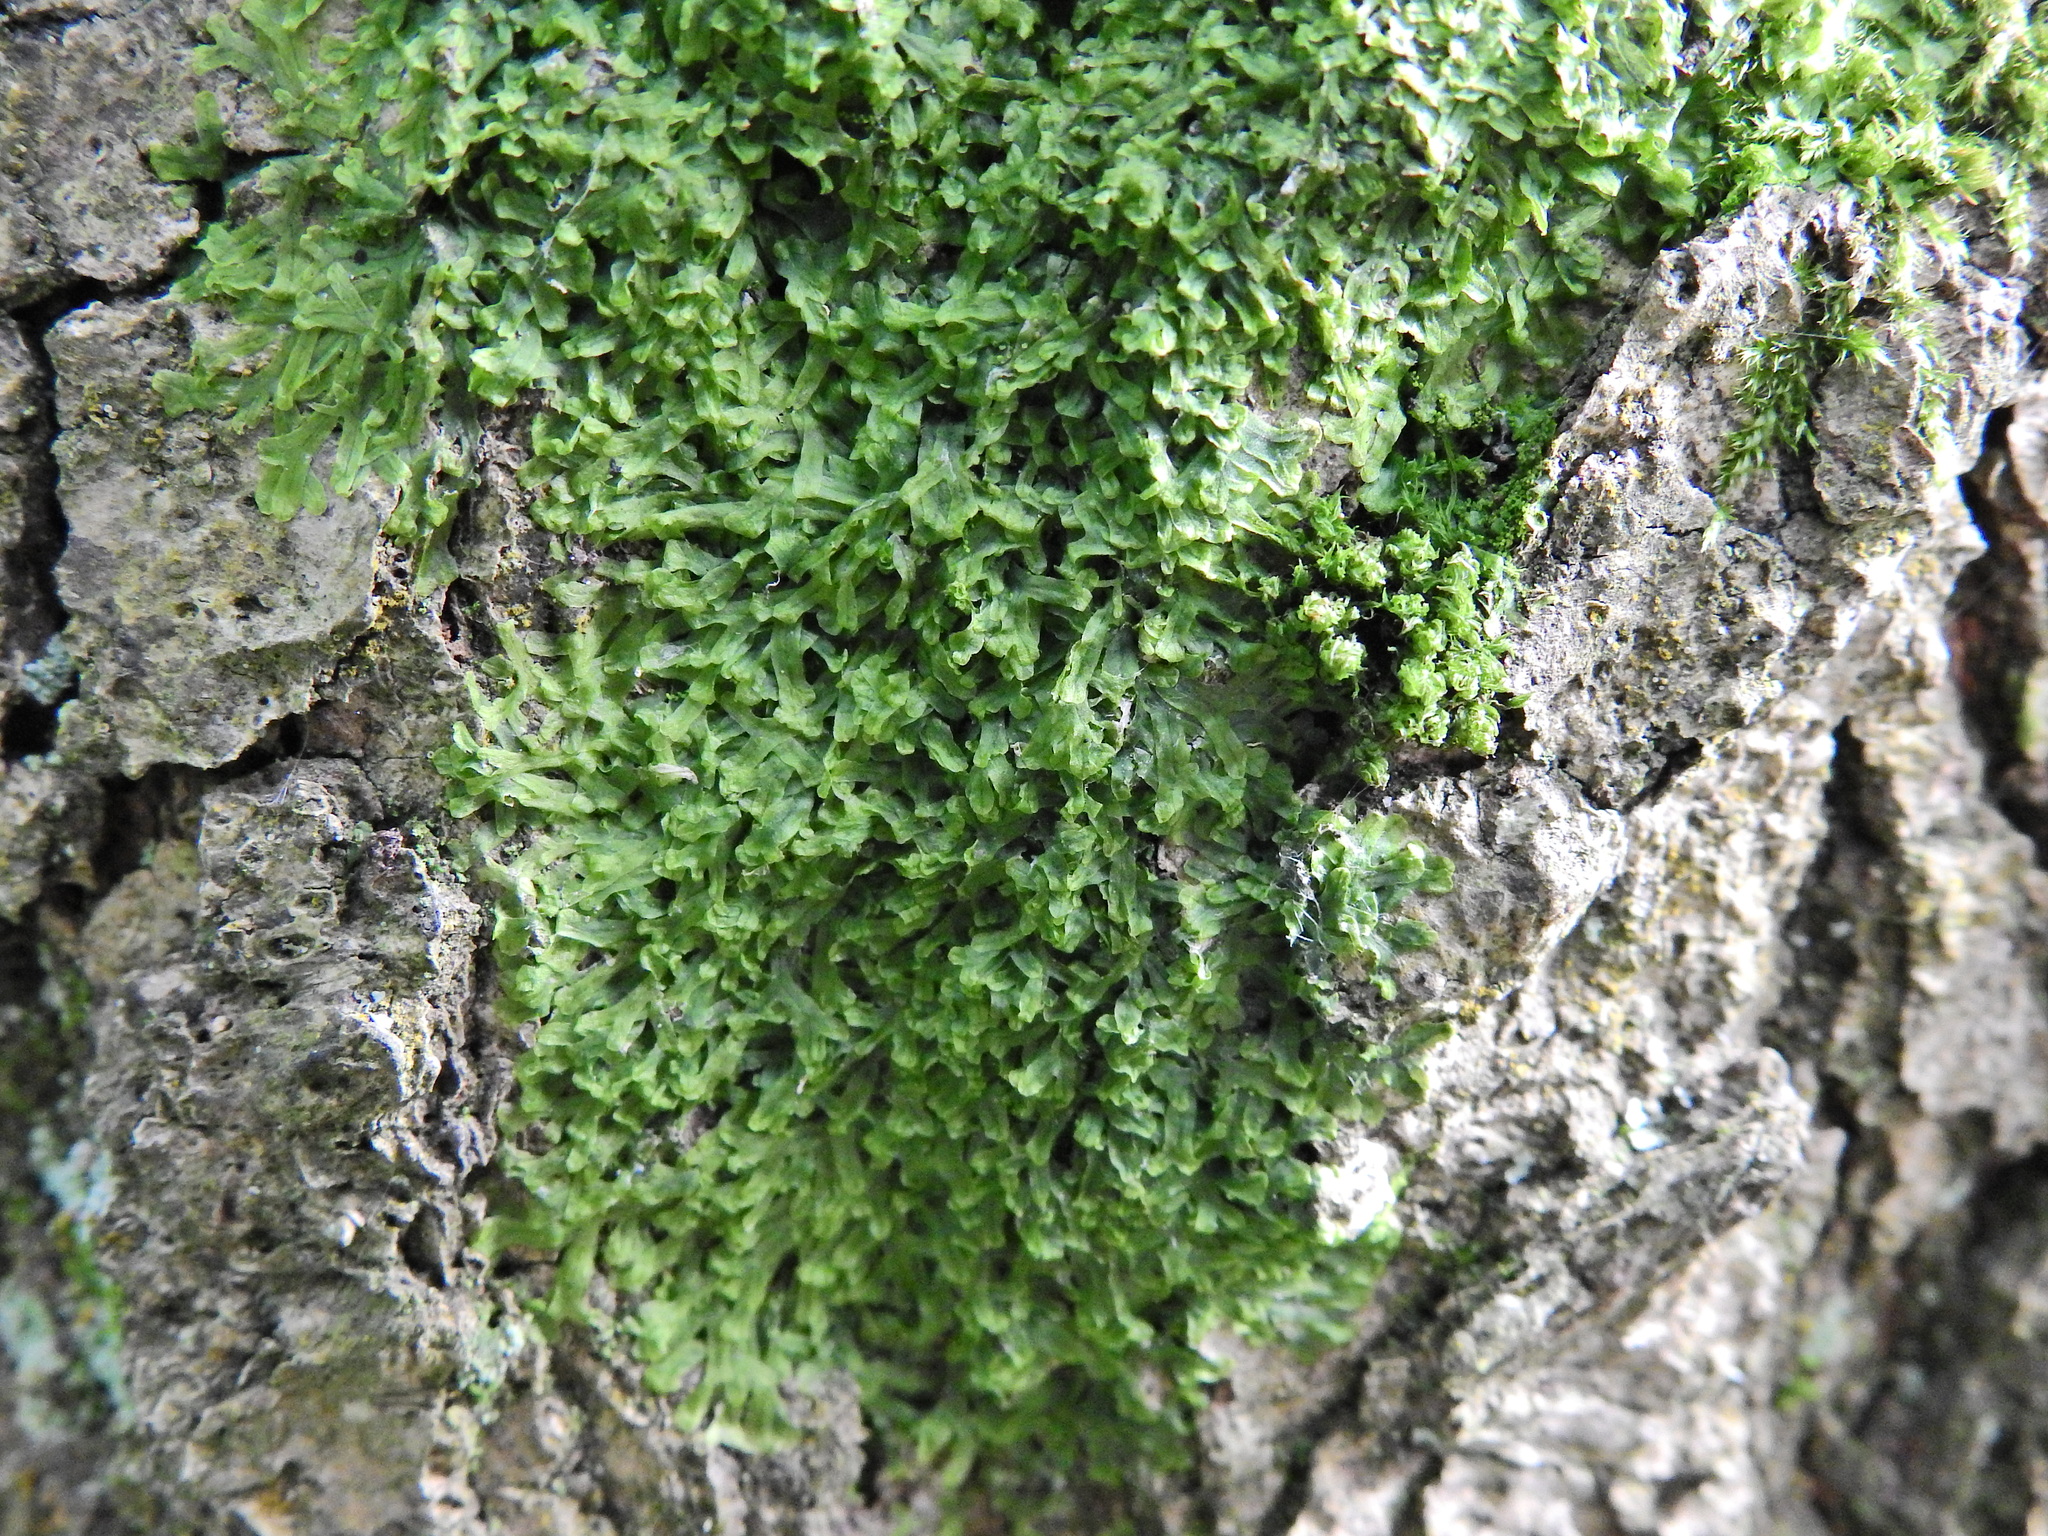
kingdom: Plantae
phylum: Marchantiophyta
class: Jungermanniopsida
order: Metzgeriales
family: Metzgeriaceae
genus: Metzgeria
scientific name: Metzgeria furcata
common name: Forked veilwort
